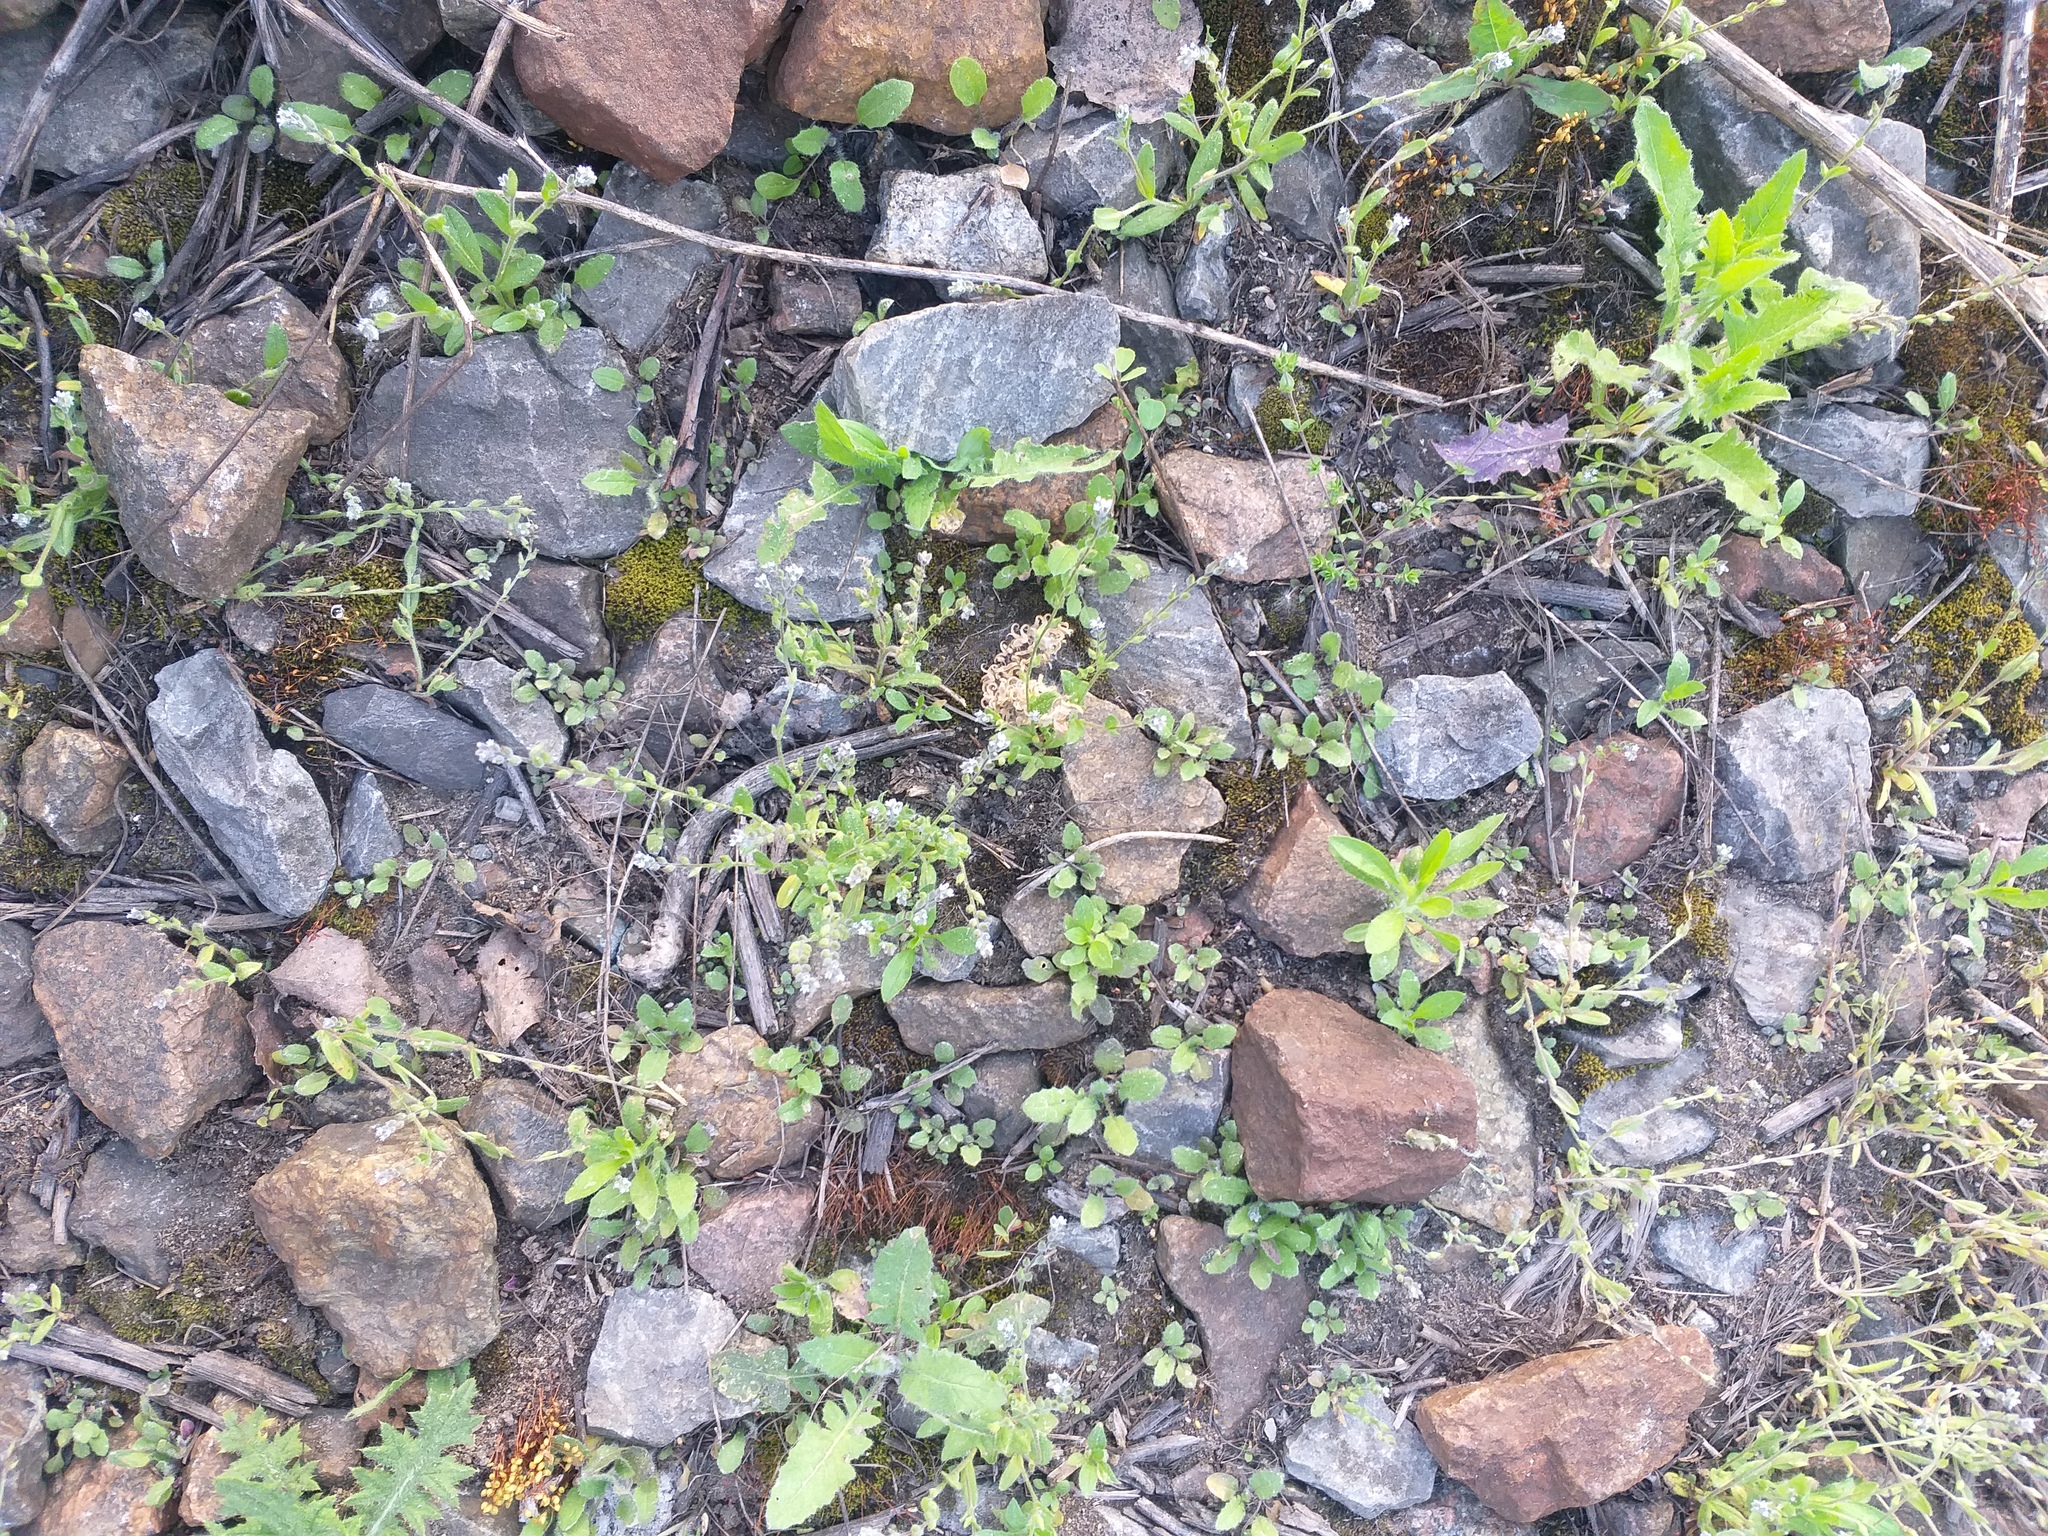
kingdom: Plantae
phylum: Tracheophyta
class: Magnoliopsida
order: Boraginales
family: Boraginaceae
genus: Myosotis
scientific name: Myosotis stricta
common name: Strict forget-me-not
